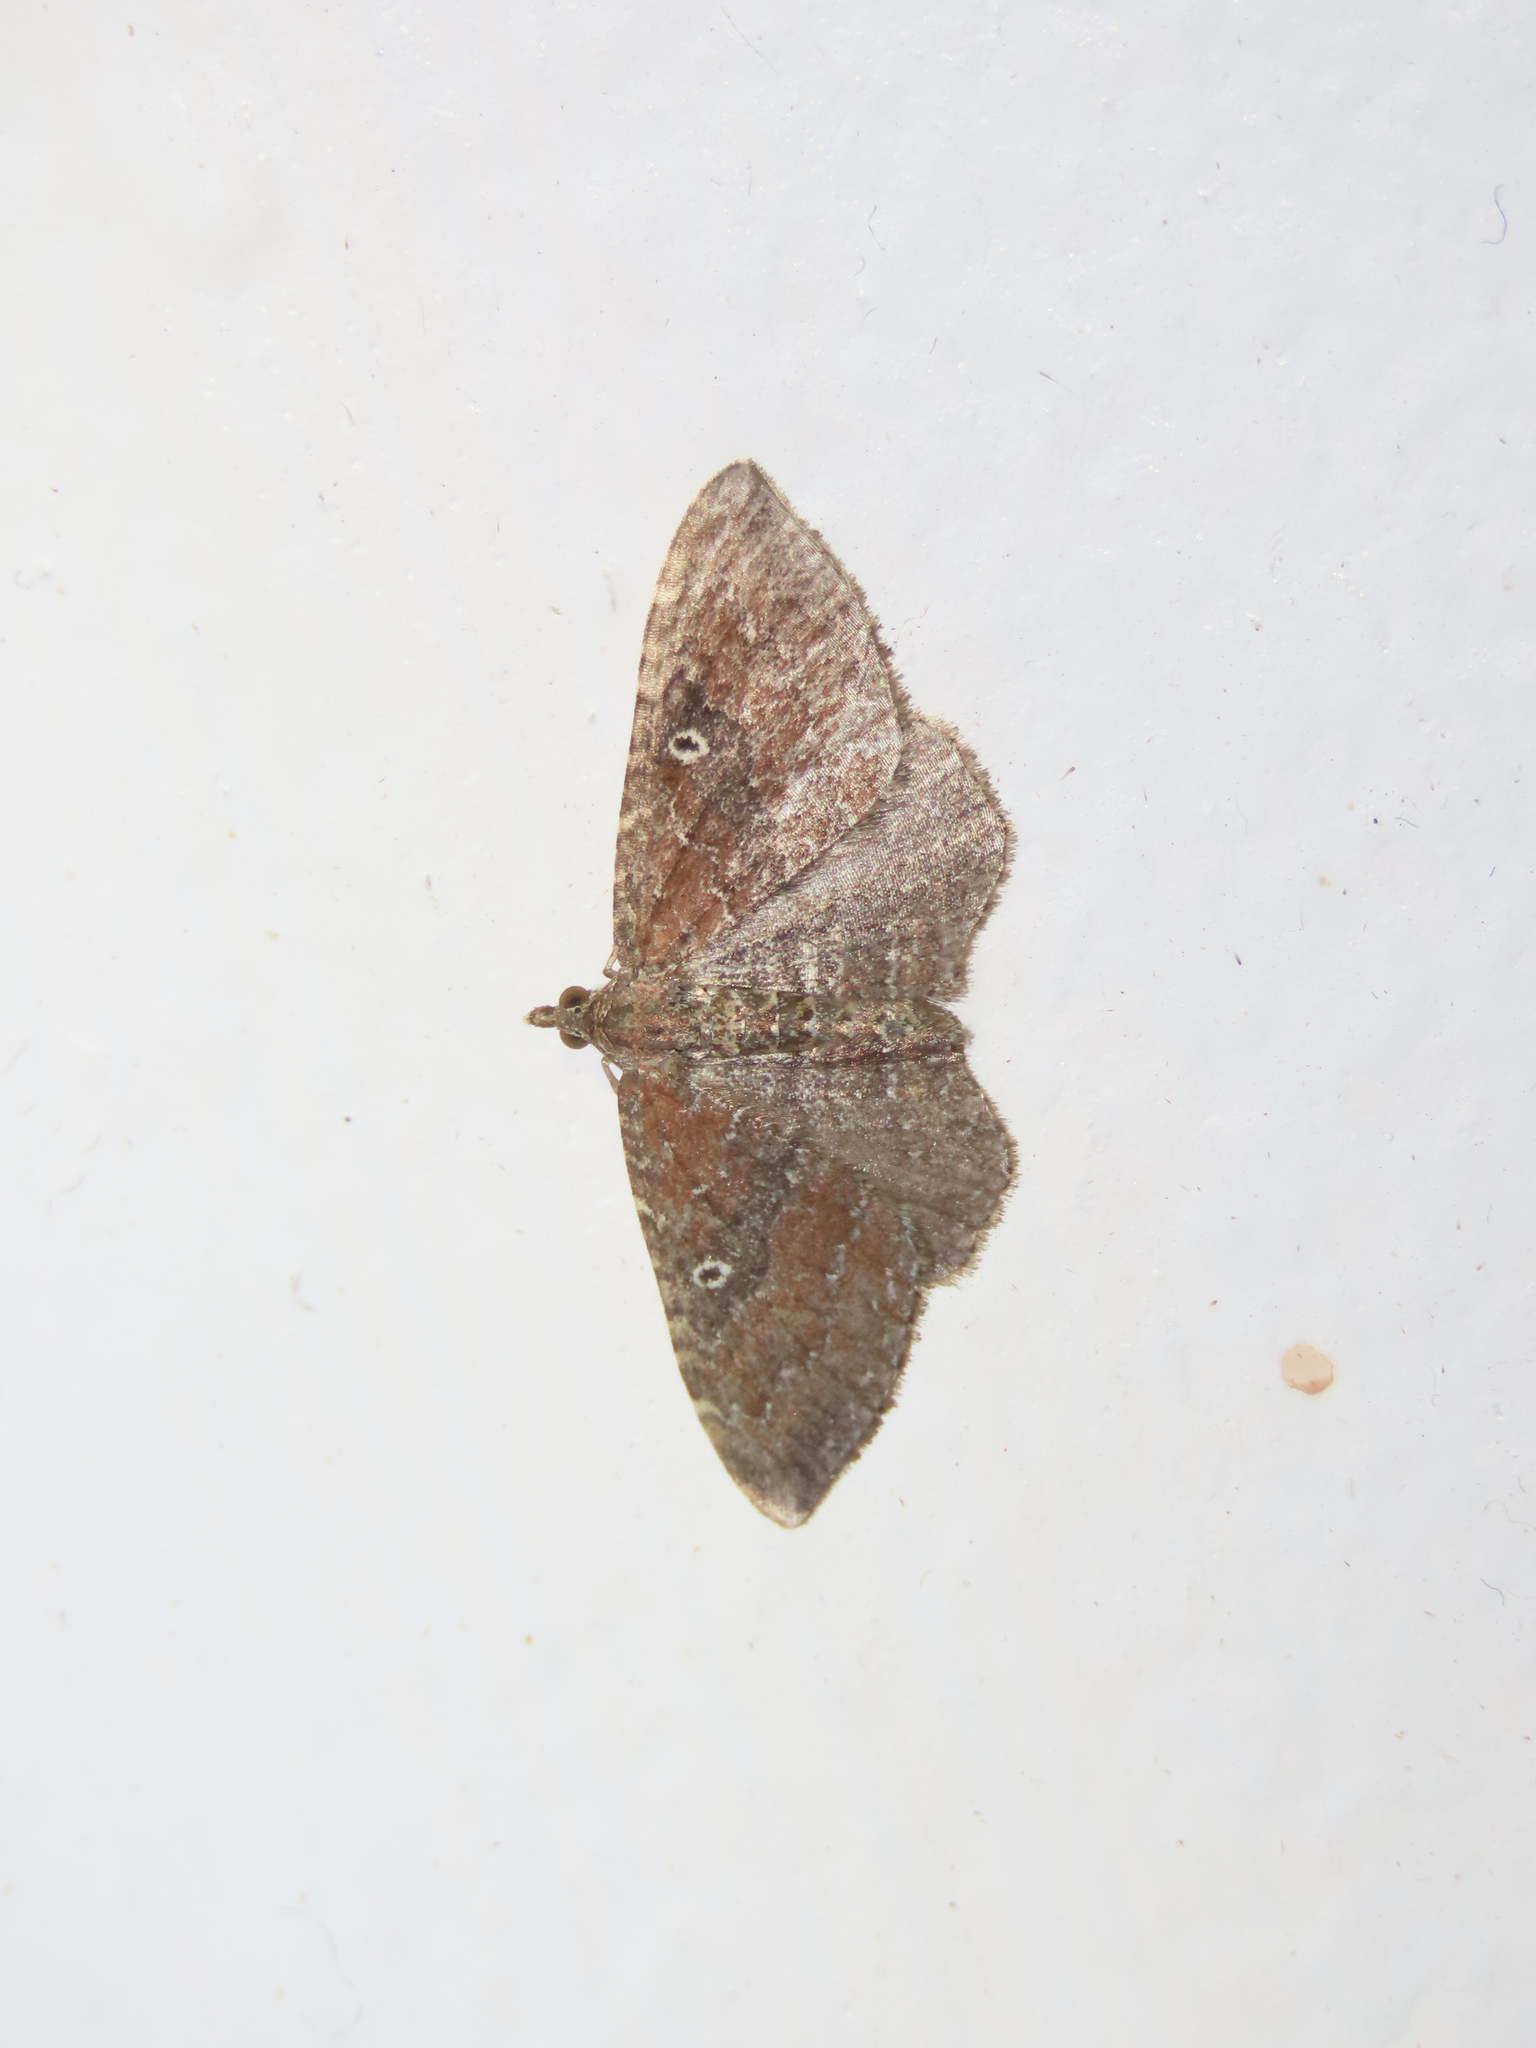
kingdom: Animalia
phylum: Arthropoda
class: Insecta
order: Lepidoptera
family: Geometridae
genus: Orthonama
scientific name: Orthonama obstipata
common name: The gem
